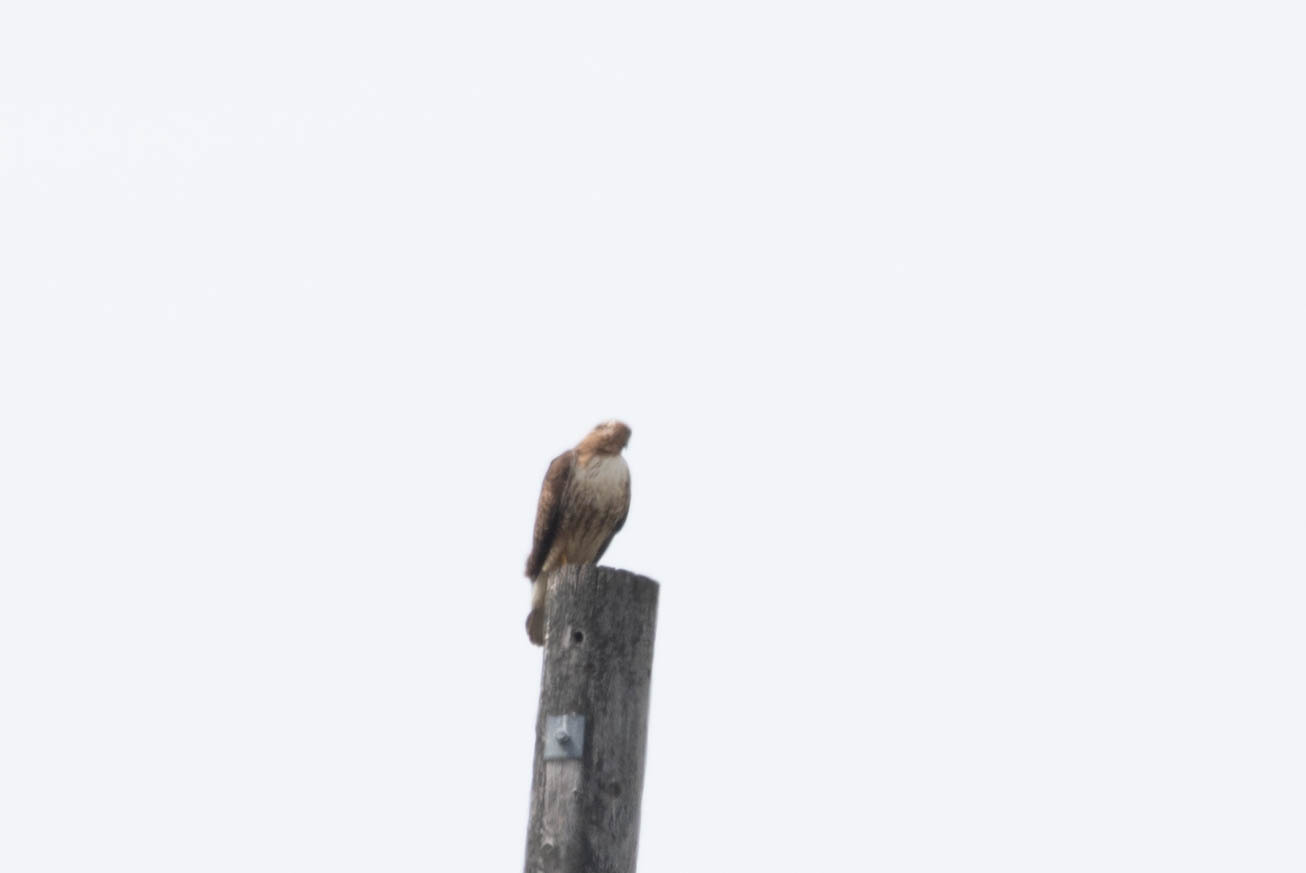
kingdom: Animalia
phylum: Chordata
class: Aves
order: Accipitriformes
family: Accipitridae
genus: Buteo
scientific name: Buteo jamaicensis
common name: Red-tailed hawk
